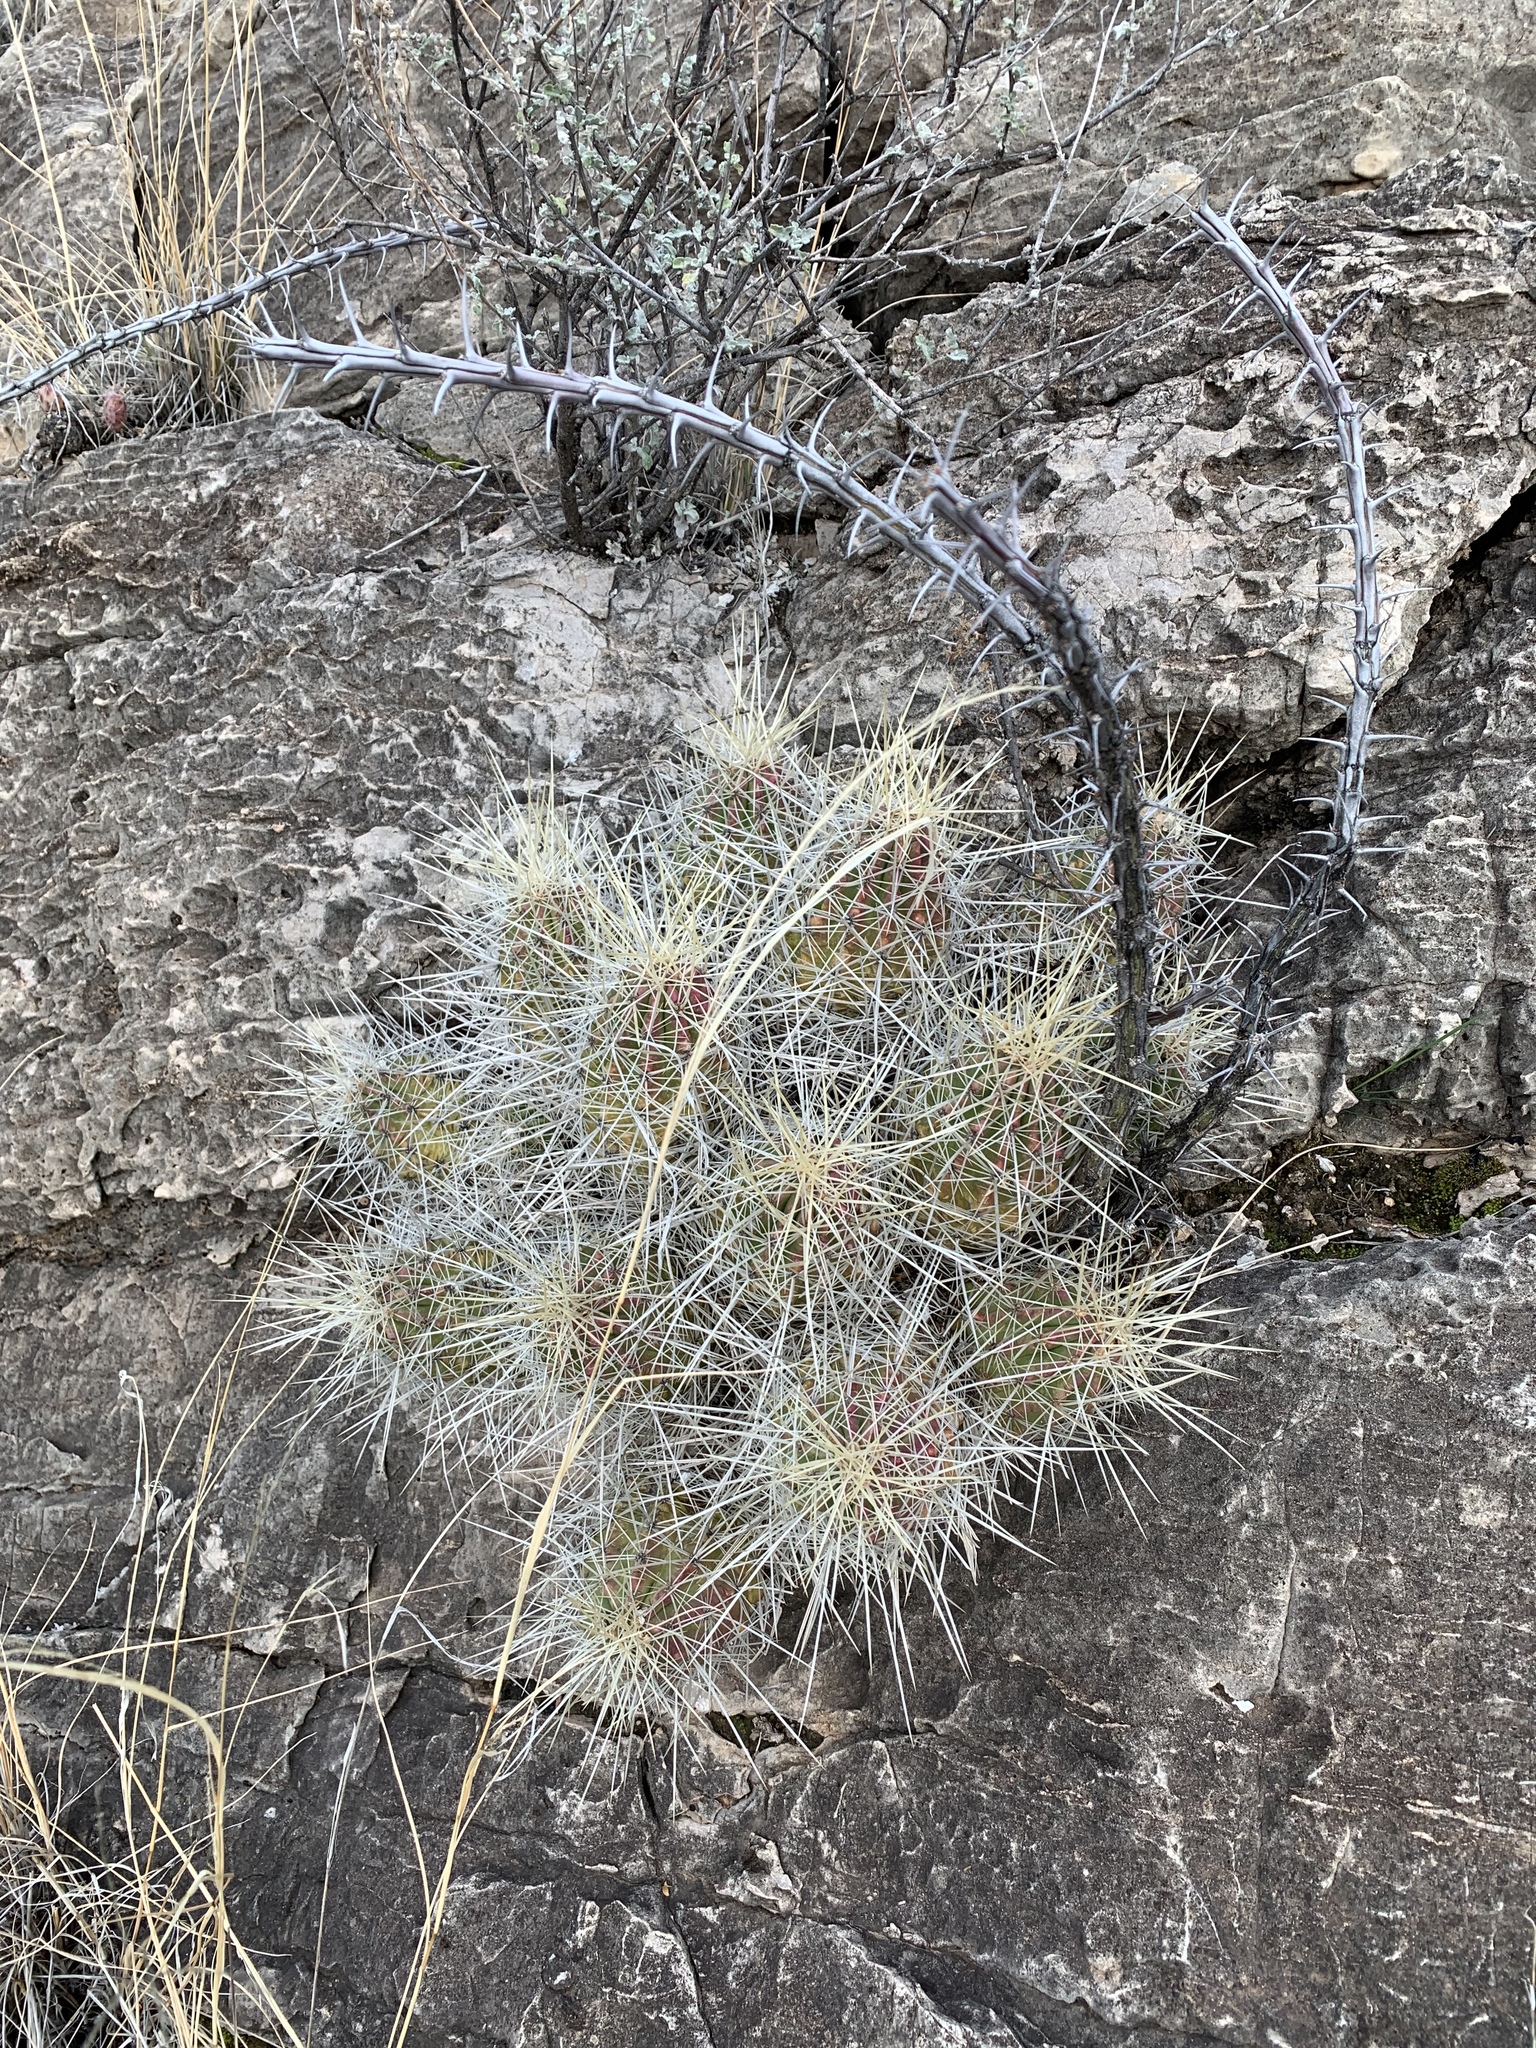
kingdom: Plantae
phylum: Tracheophyta
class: Magnoliopsida
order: Caryophyllales
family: Cactaceae
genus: Echinocereus
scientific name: Echinocereus stramineus
